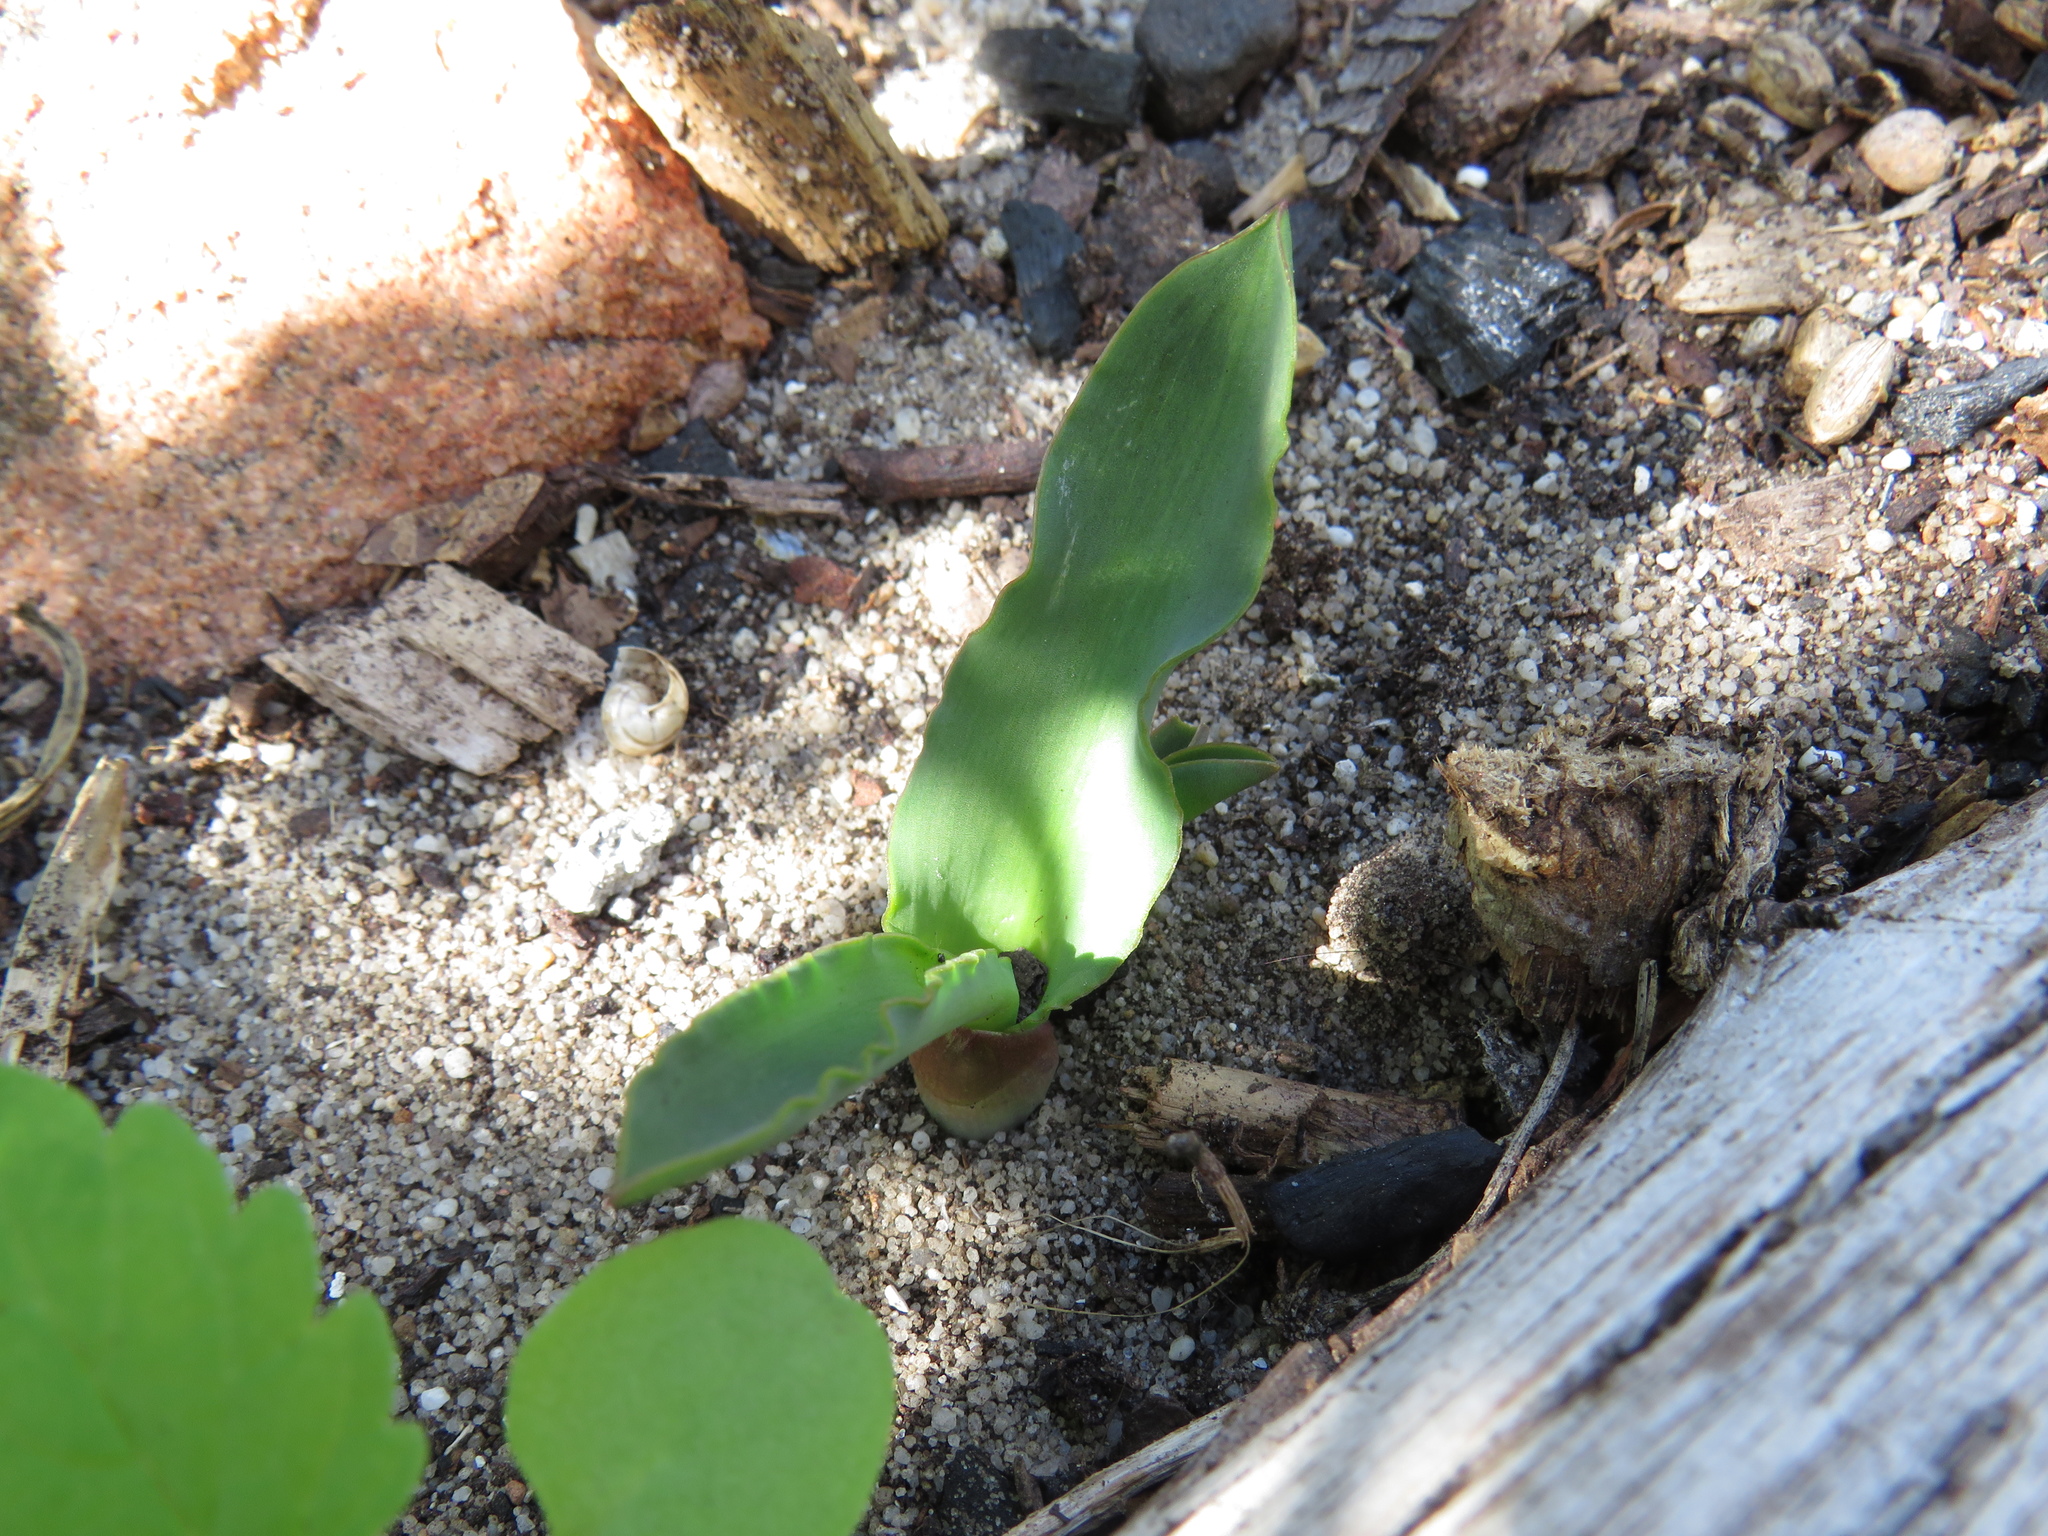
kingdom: Plantae
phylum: Tracheophyta
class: Liliopsida
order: Asparagales
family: Asparagaceae
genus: Lachenalia
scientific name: Lachenalia reflexa
